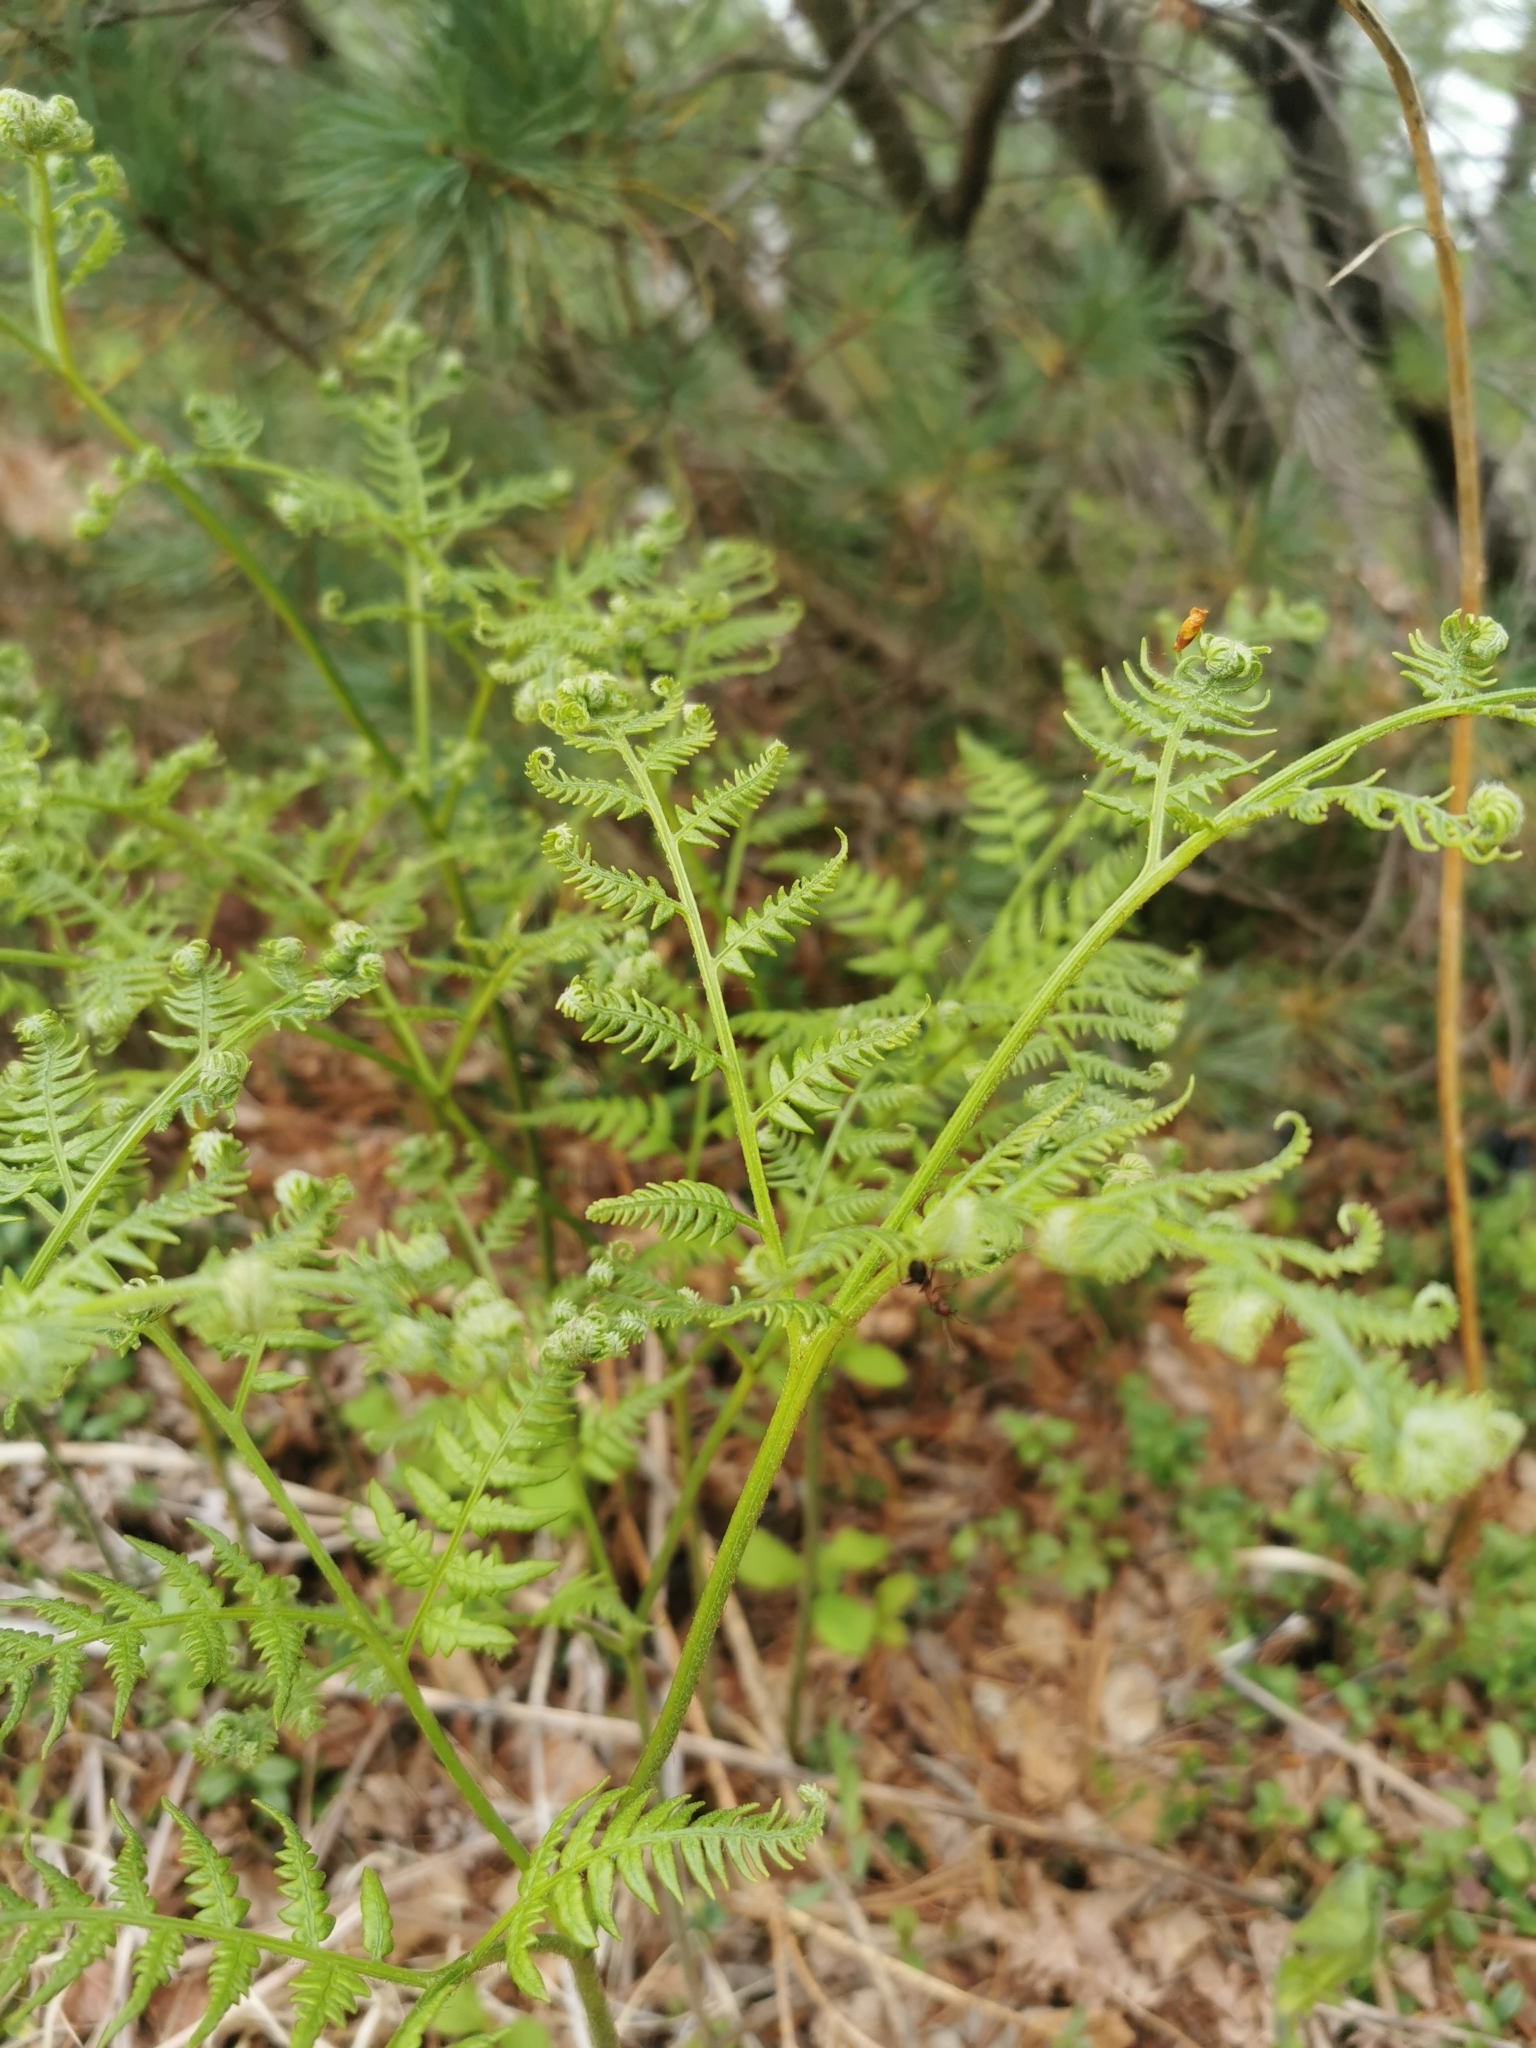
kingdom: Plantae
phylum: Tracheophyta
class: Polypodiopsida
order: Polypodiales
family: Dennstaedtiaceae
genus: Pteridium
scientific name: Pteridium aquilinum
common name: Bracken
